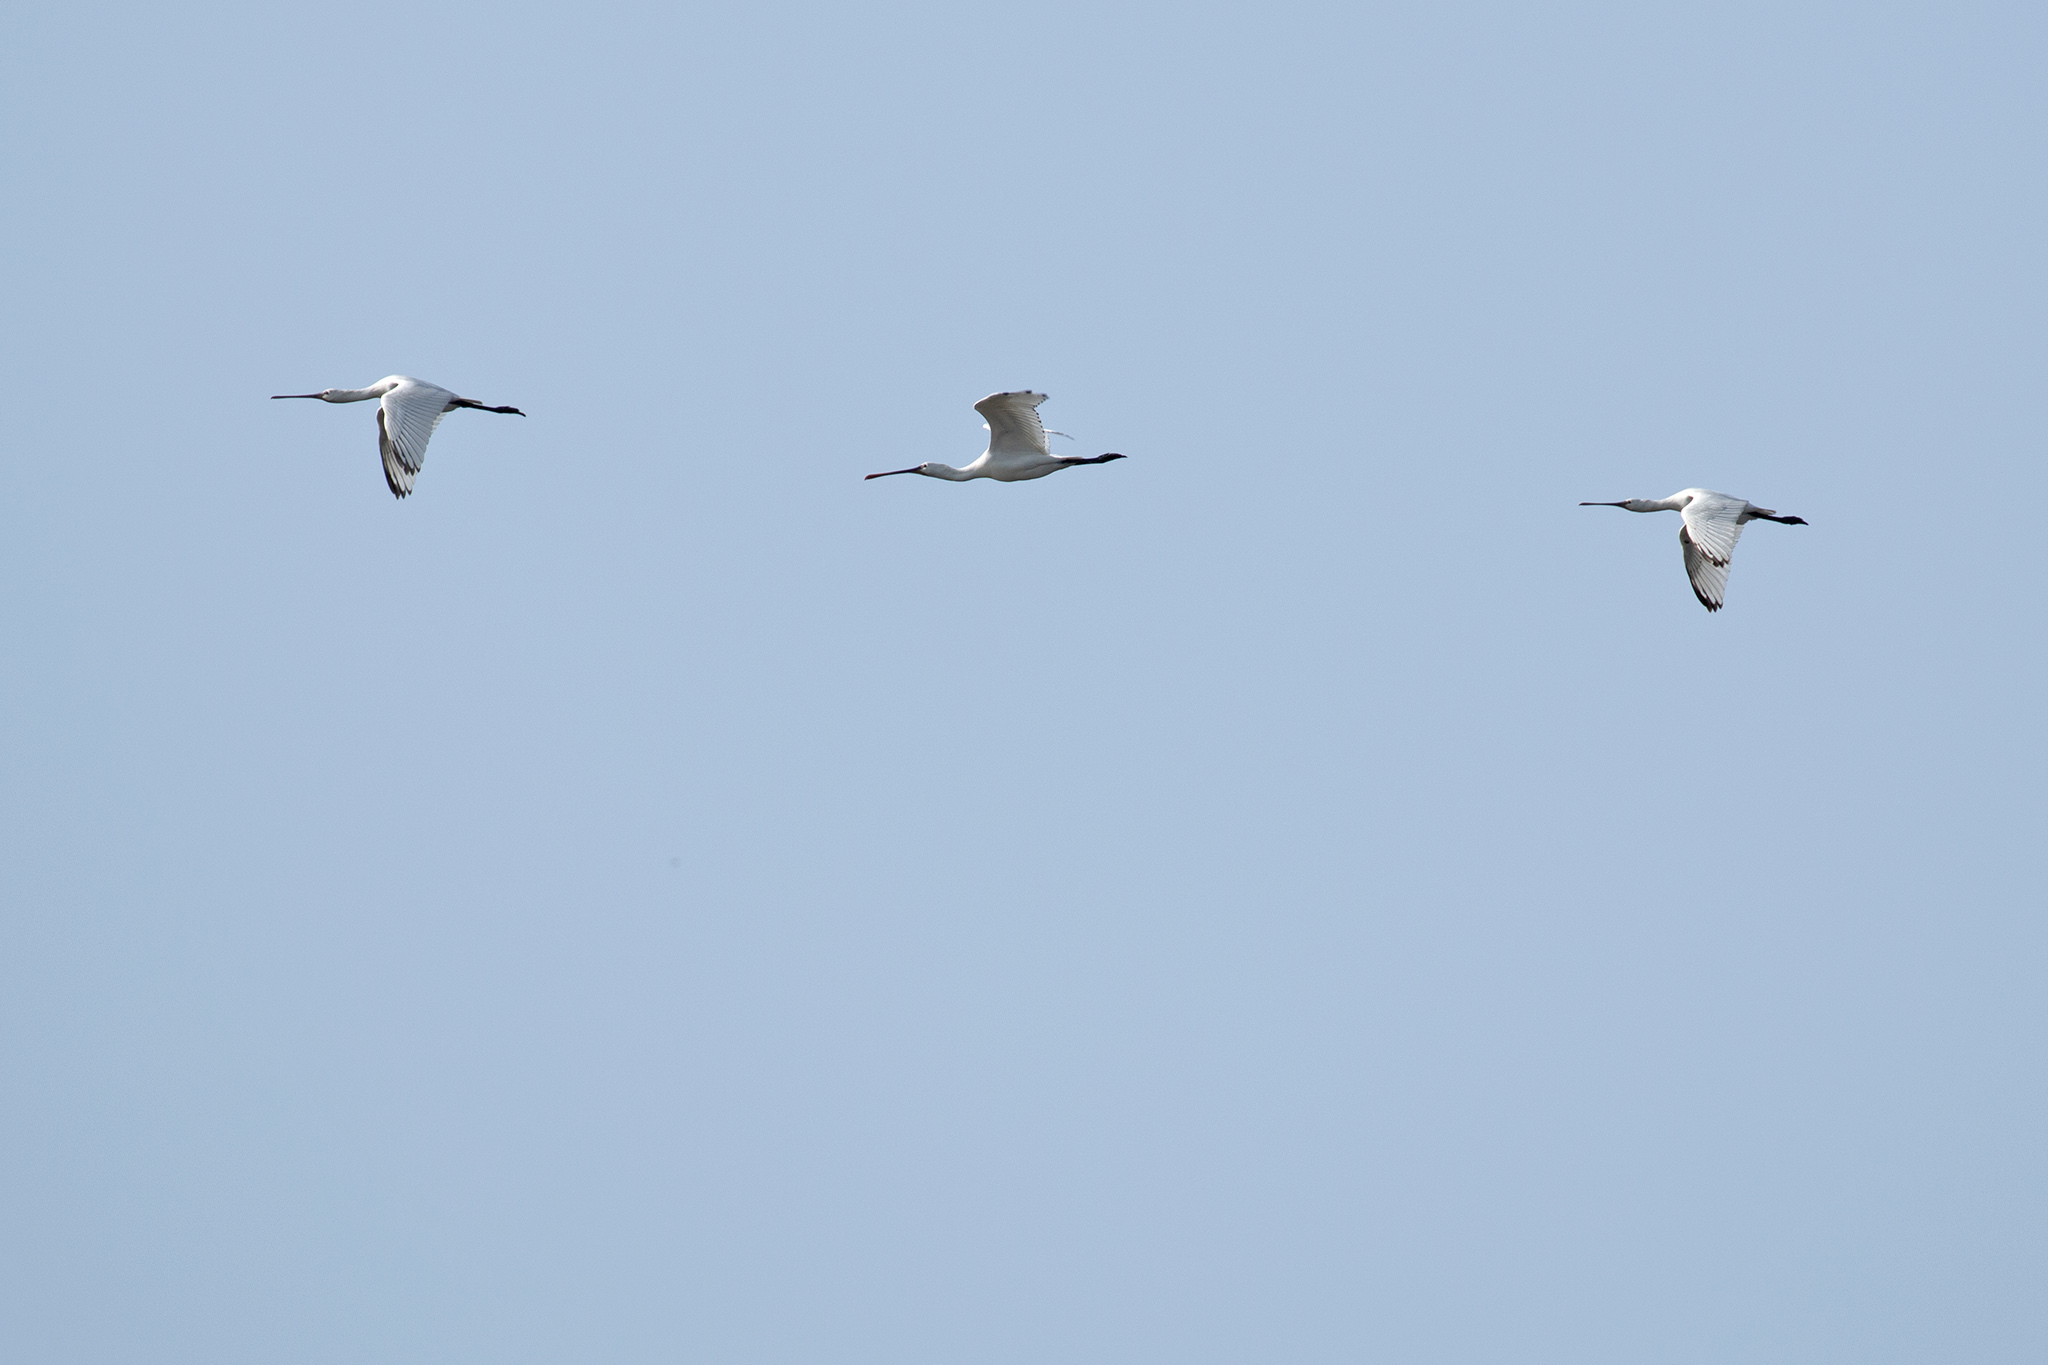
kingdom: Animalia
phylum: Chordata
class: Aves
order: Pelecaniformes
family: Threskiornithidae
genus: Platalea
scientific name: Platalea leucorodia
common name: Eurasian spoonbill
